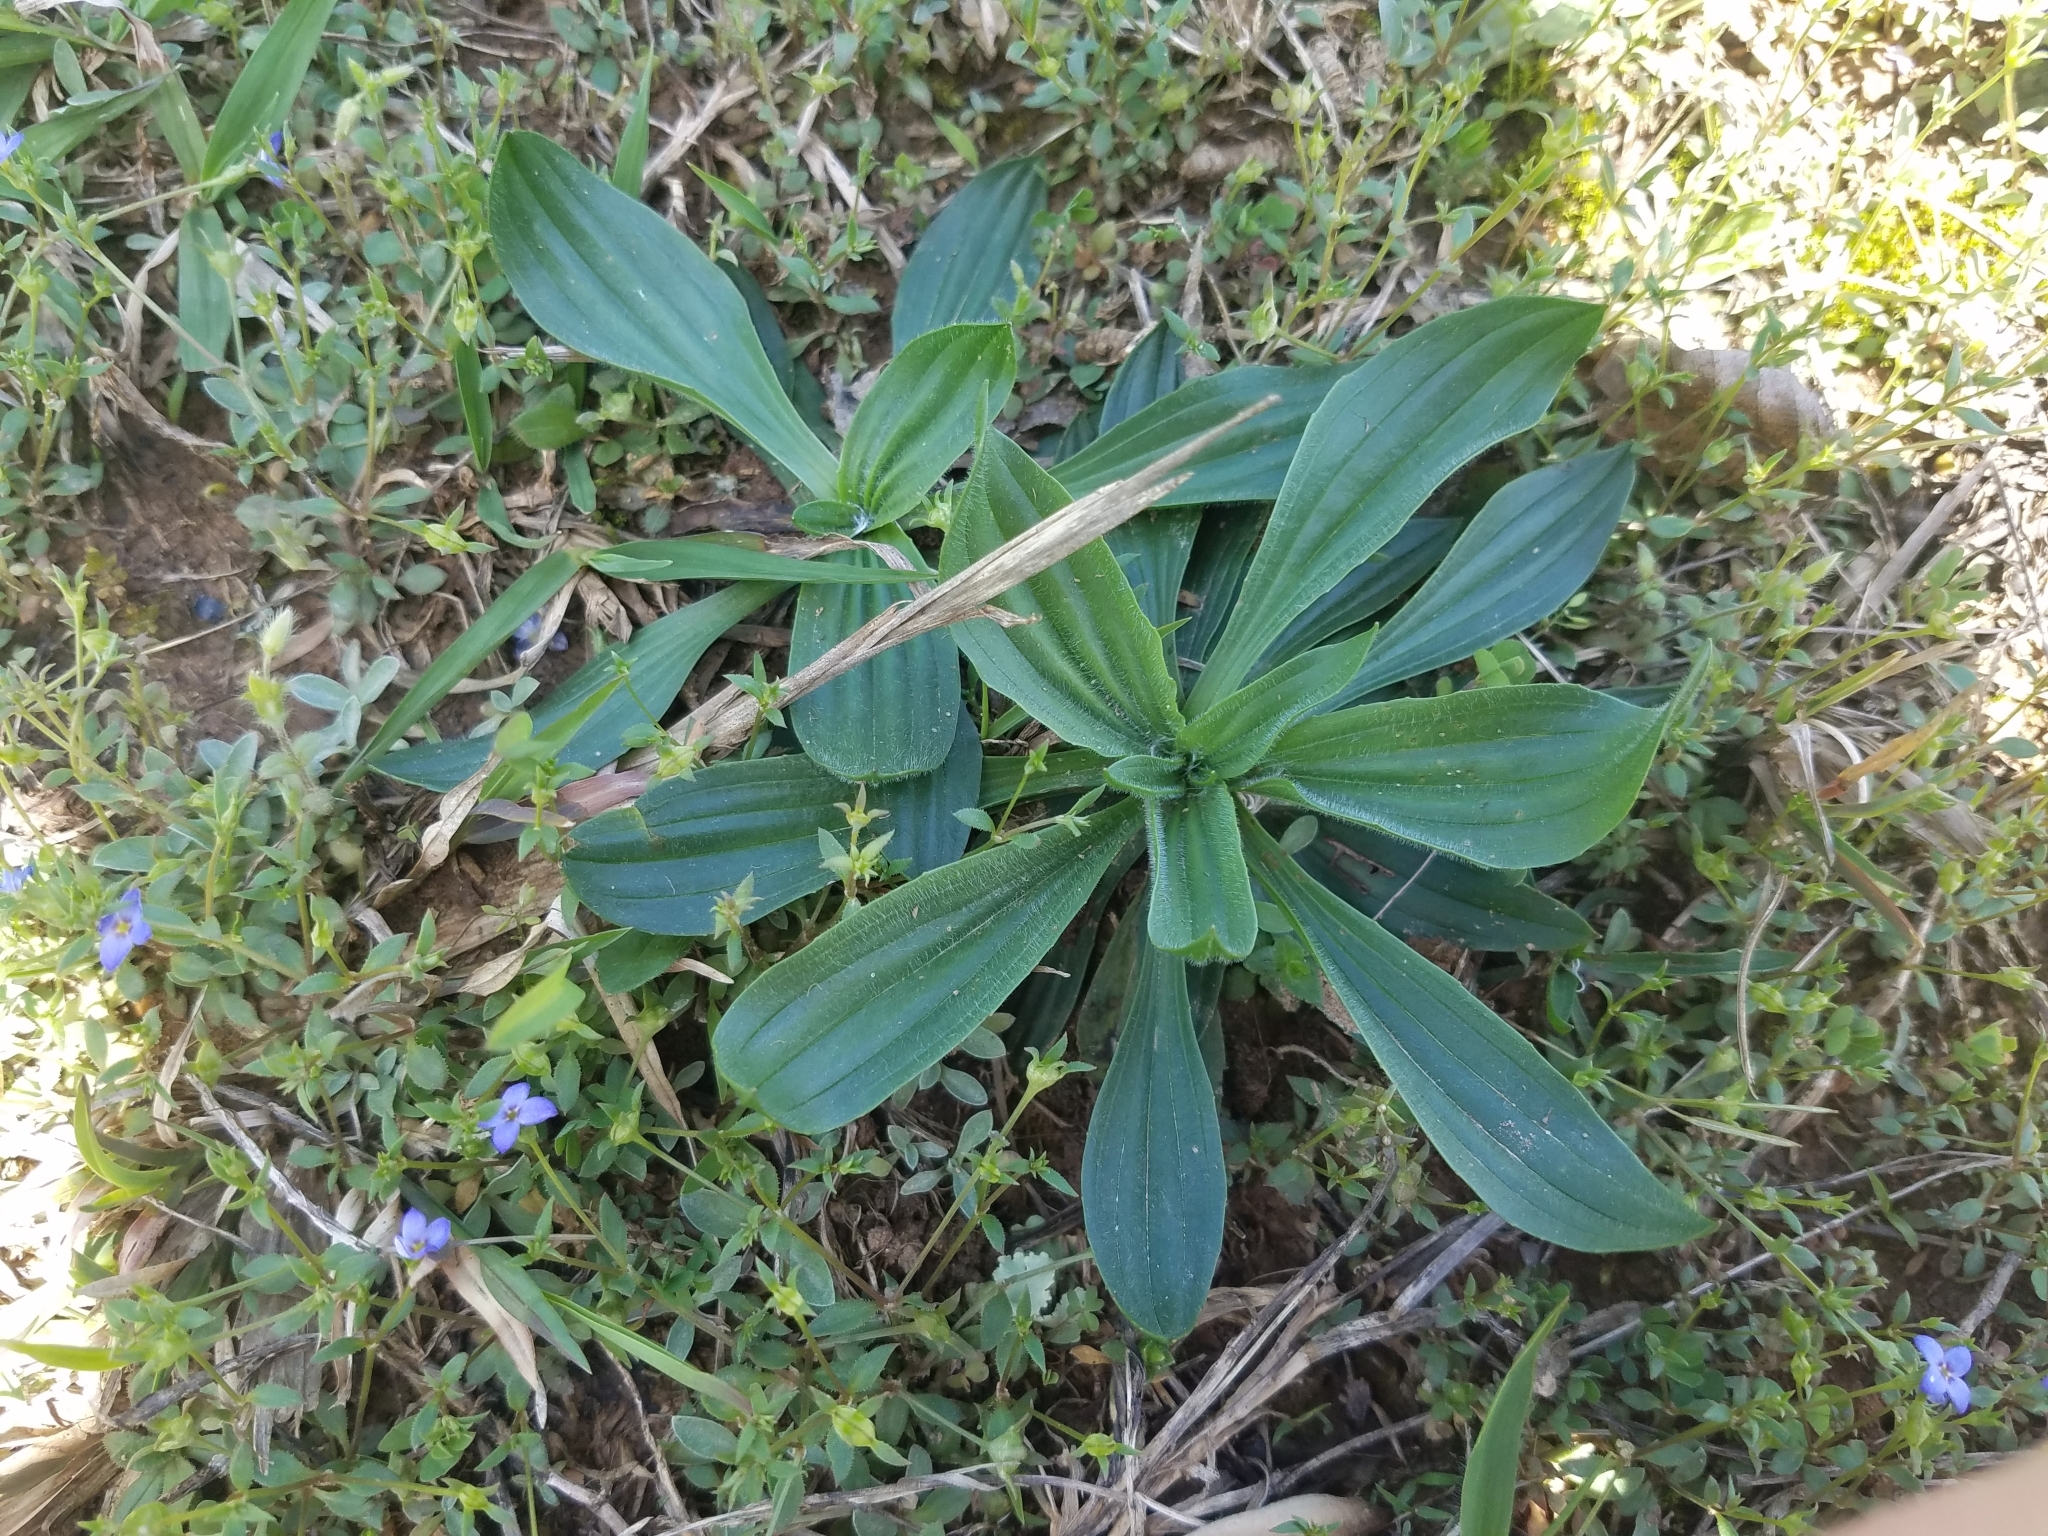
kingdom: Plantae
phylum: Tracheophyta
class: Magnoliopsida
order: Lamiales
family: Plantaginaceae
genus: Plantago
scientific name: Plantago lanceolata
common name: Ribwort plantain
